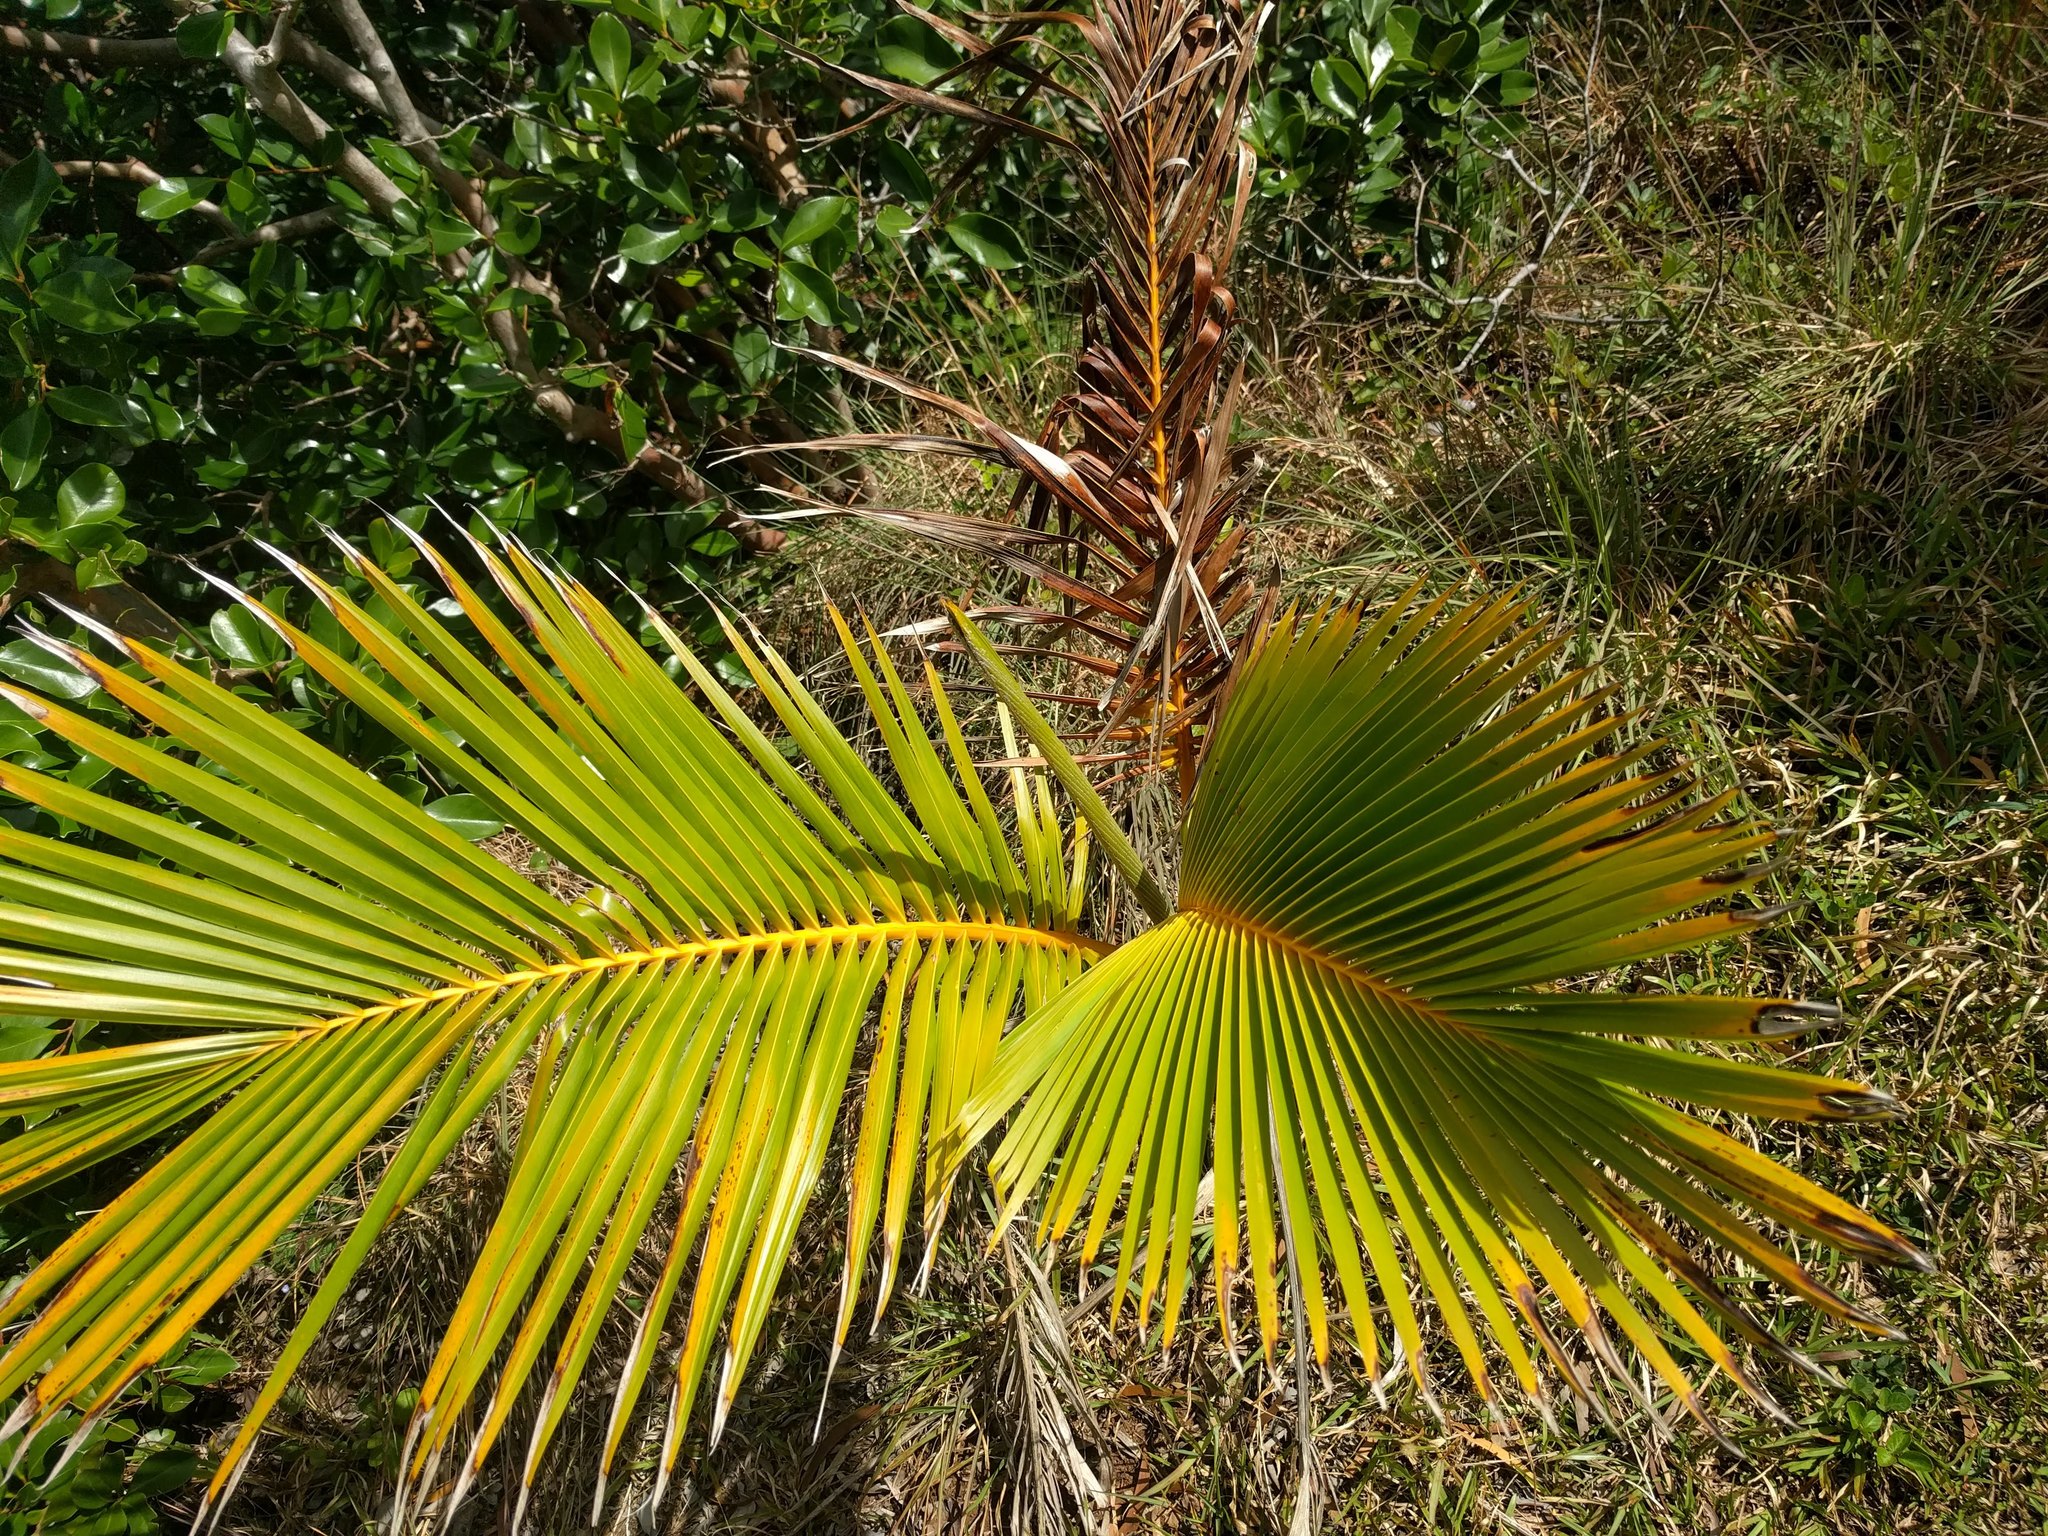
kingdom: Plantae
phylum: Tracheophyta
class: Liliopsida
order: Arecales
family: Arecaceae
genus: Cocos
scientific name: Cocos nucifera
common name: Coconut palm
